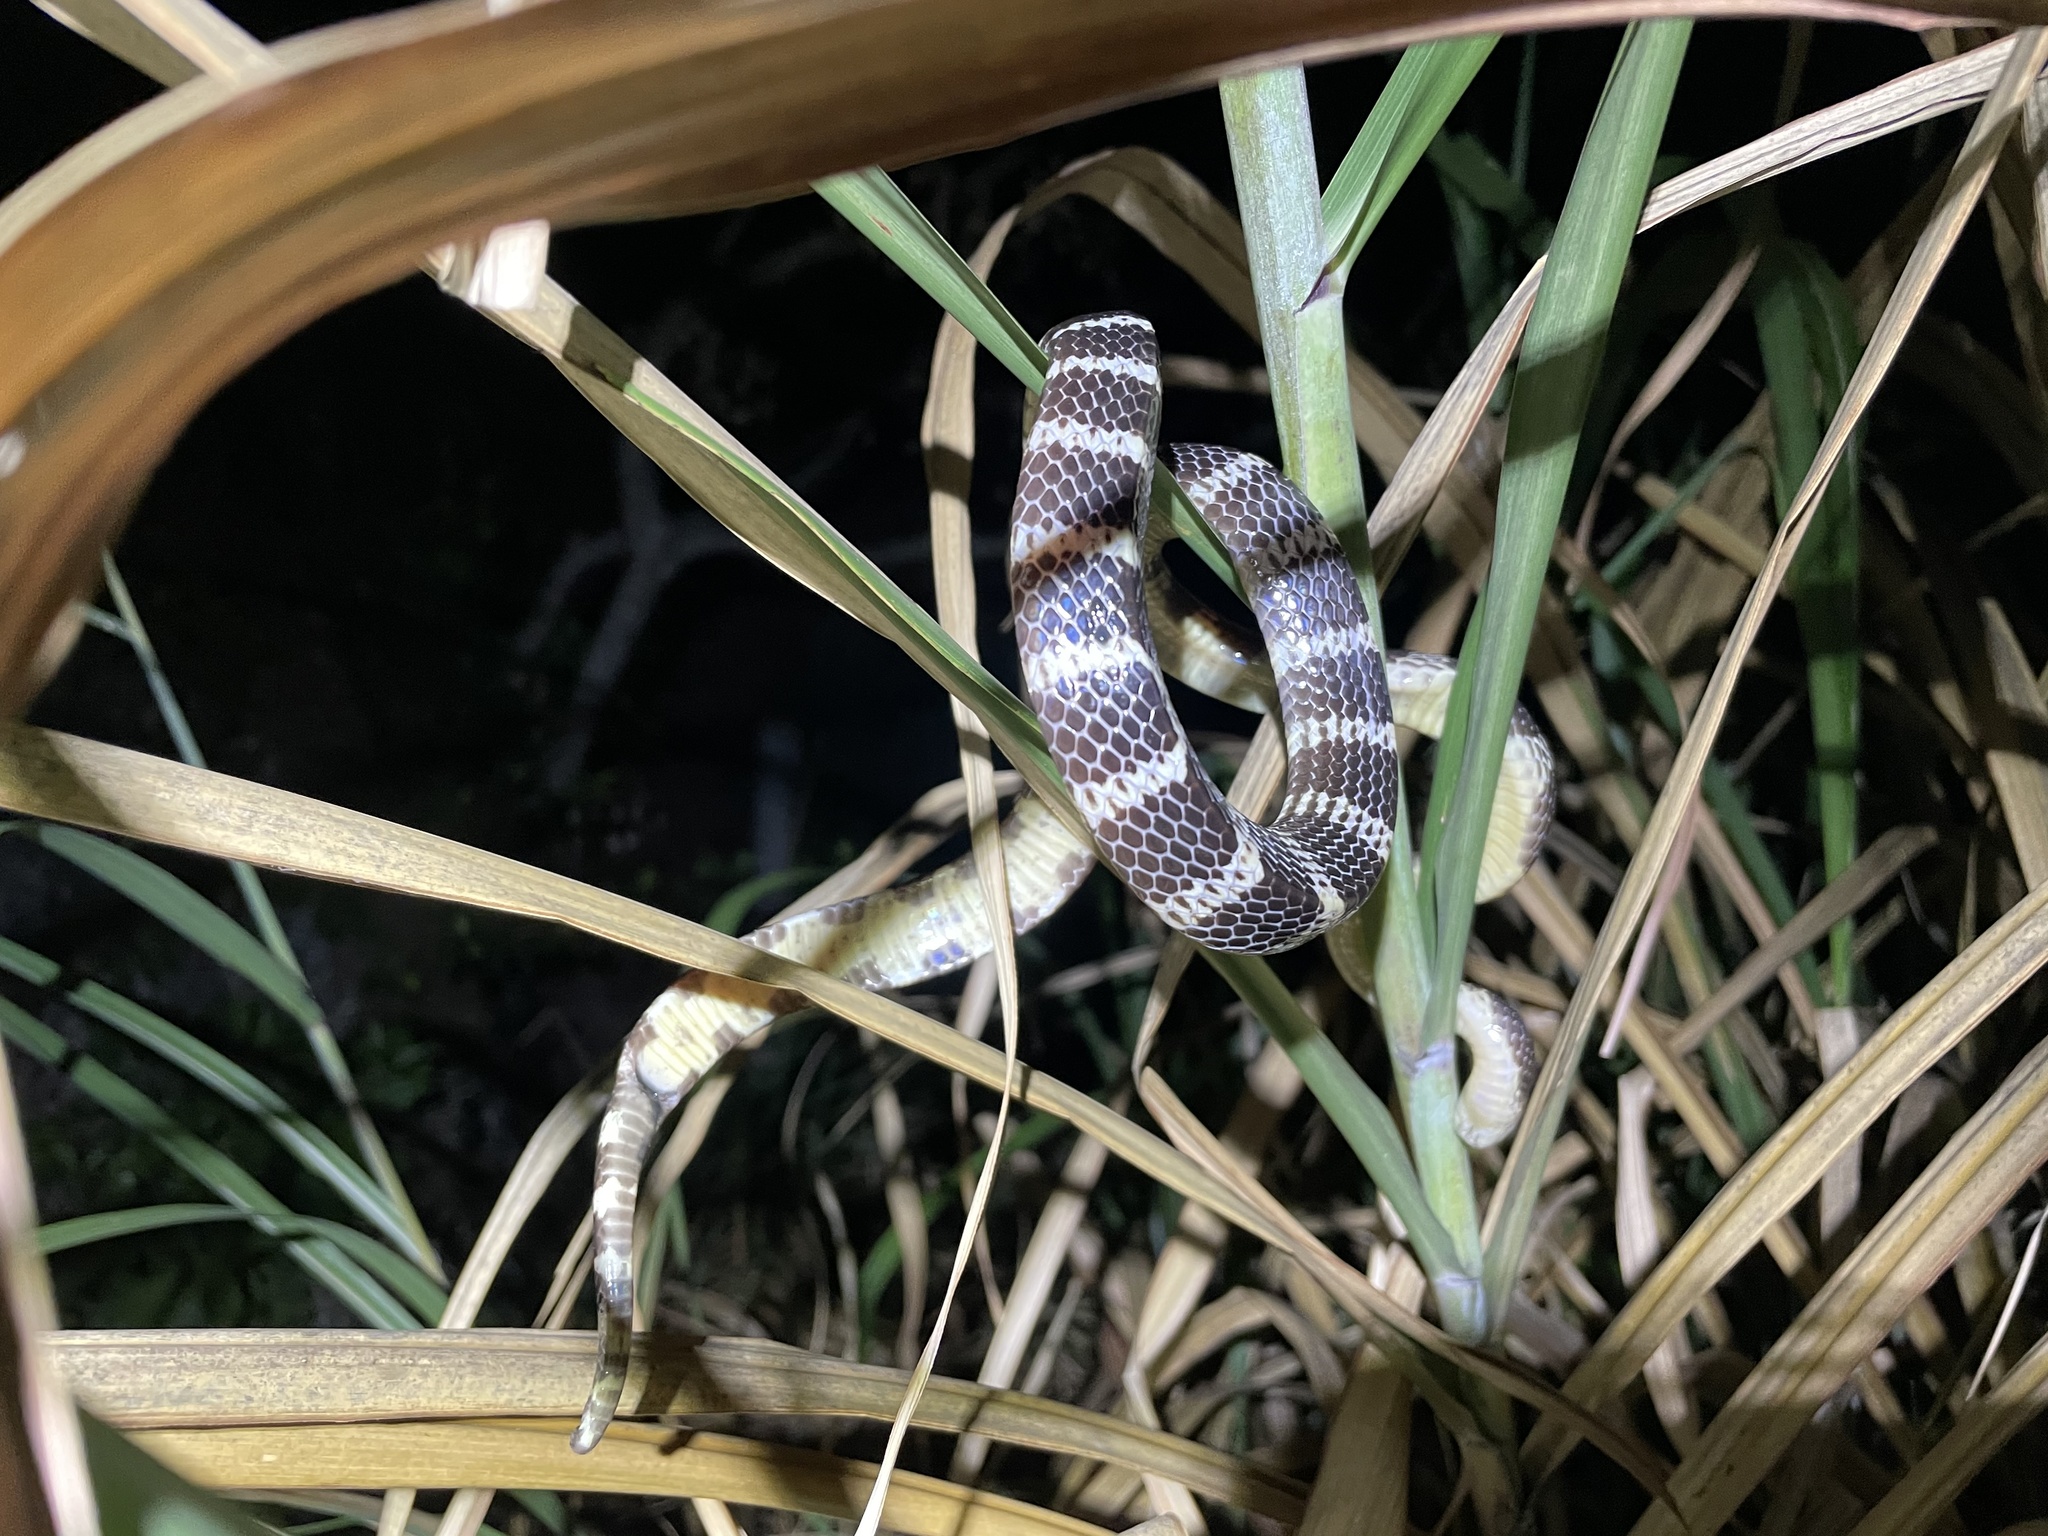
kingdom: Animalia
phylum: Chordata
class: Squamata
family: Elapidae
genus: Bungarus
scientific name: Bungarus multicinctus
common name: Many-banded krait
